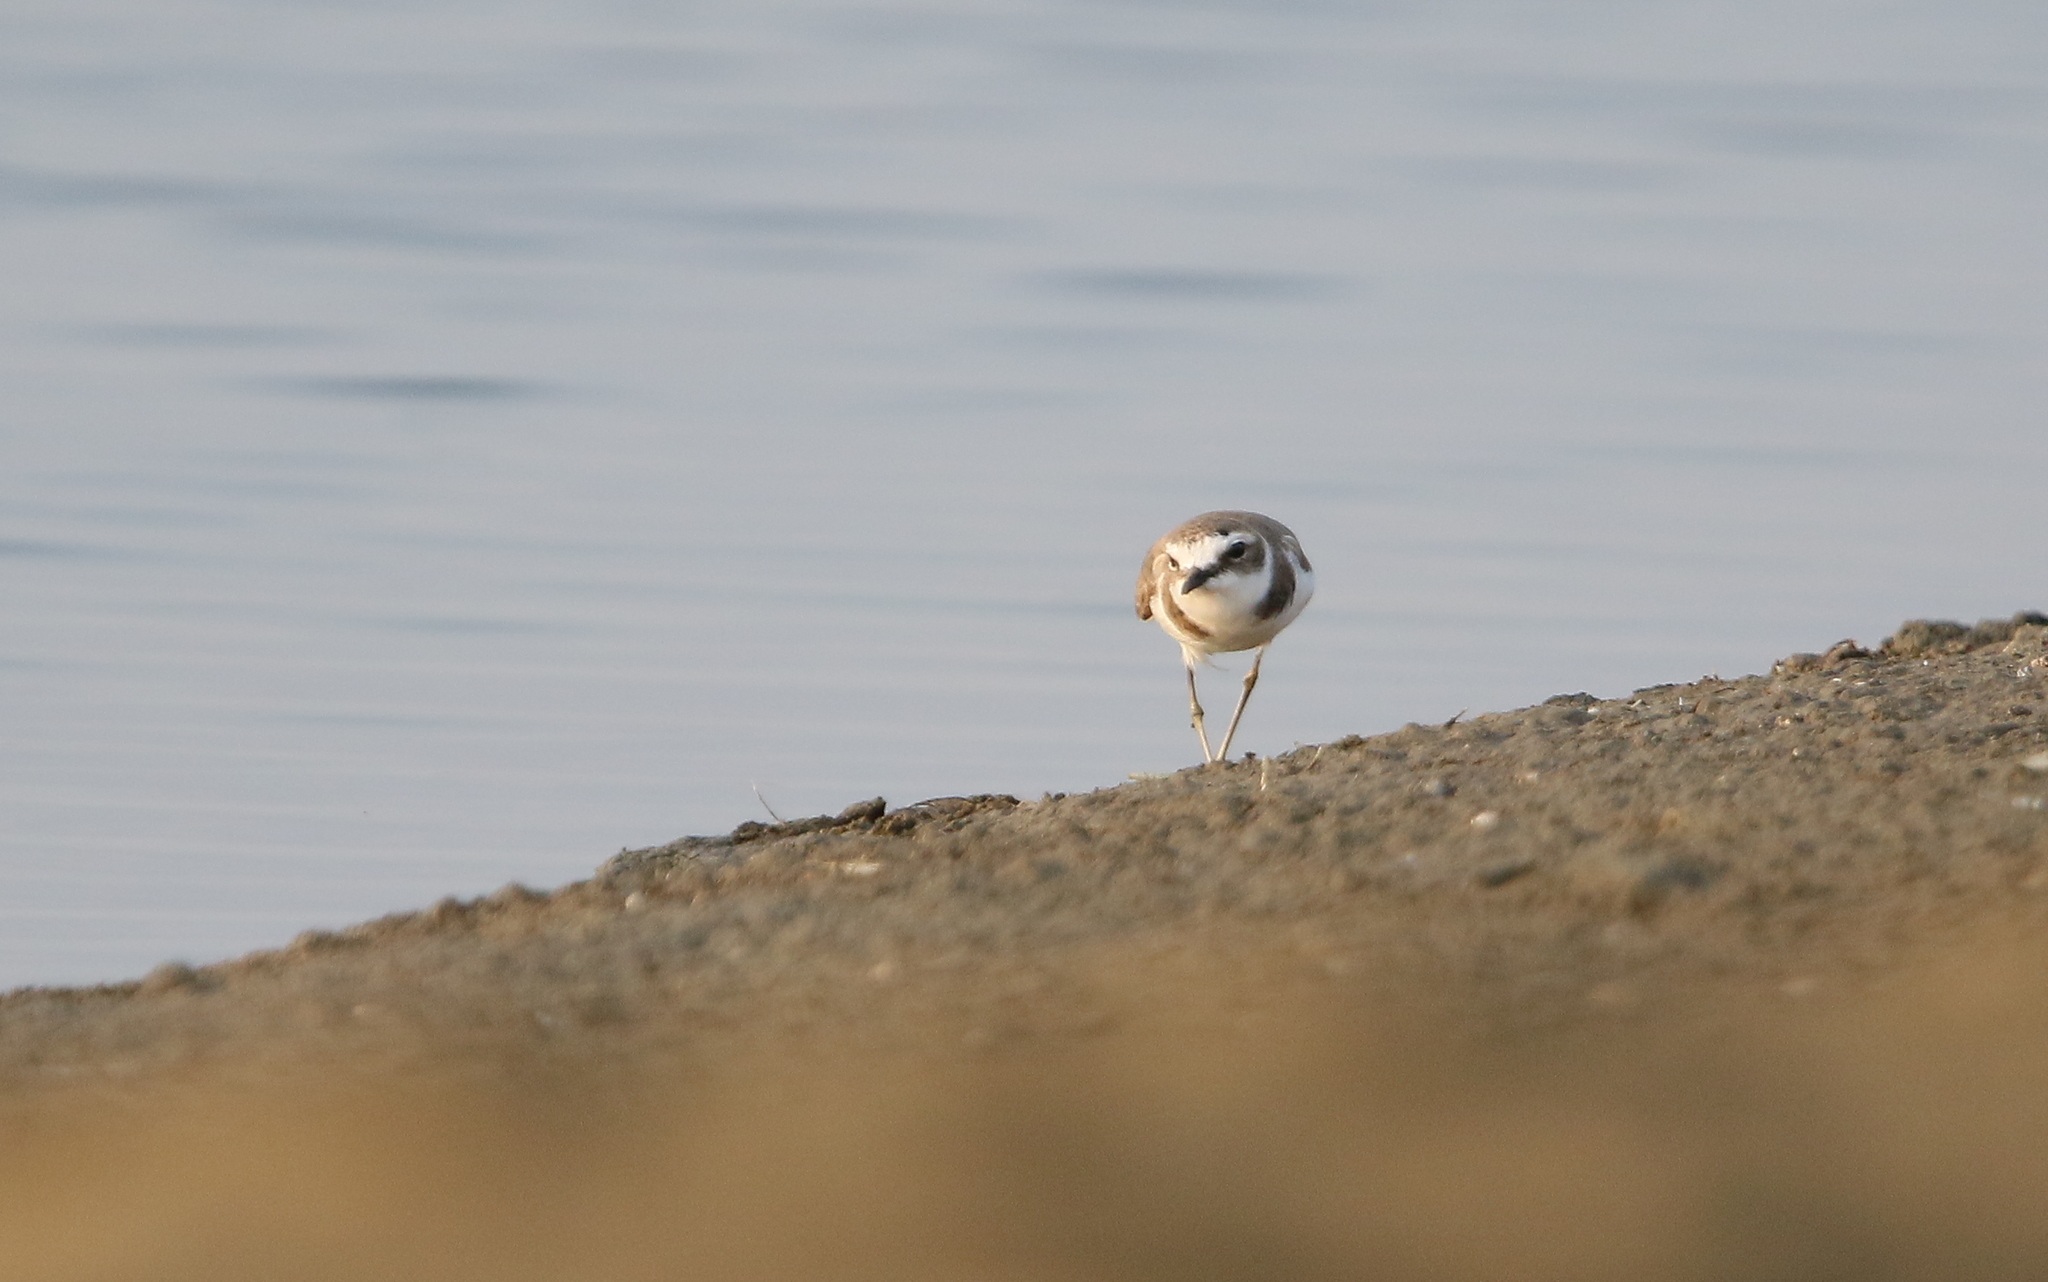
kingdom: Animalia
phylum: Chordata
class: Aves
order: Charadriiformes
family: Charadriidae
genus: Anarhynchus
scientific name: Anarhynchus
